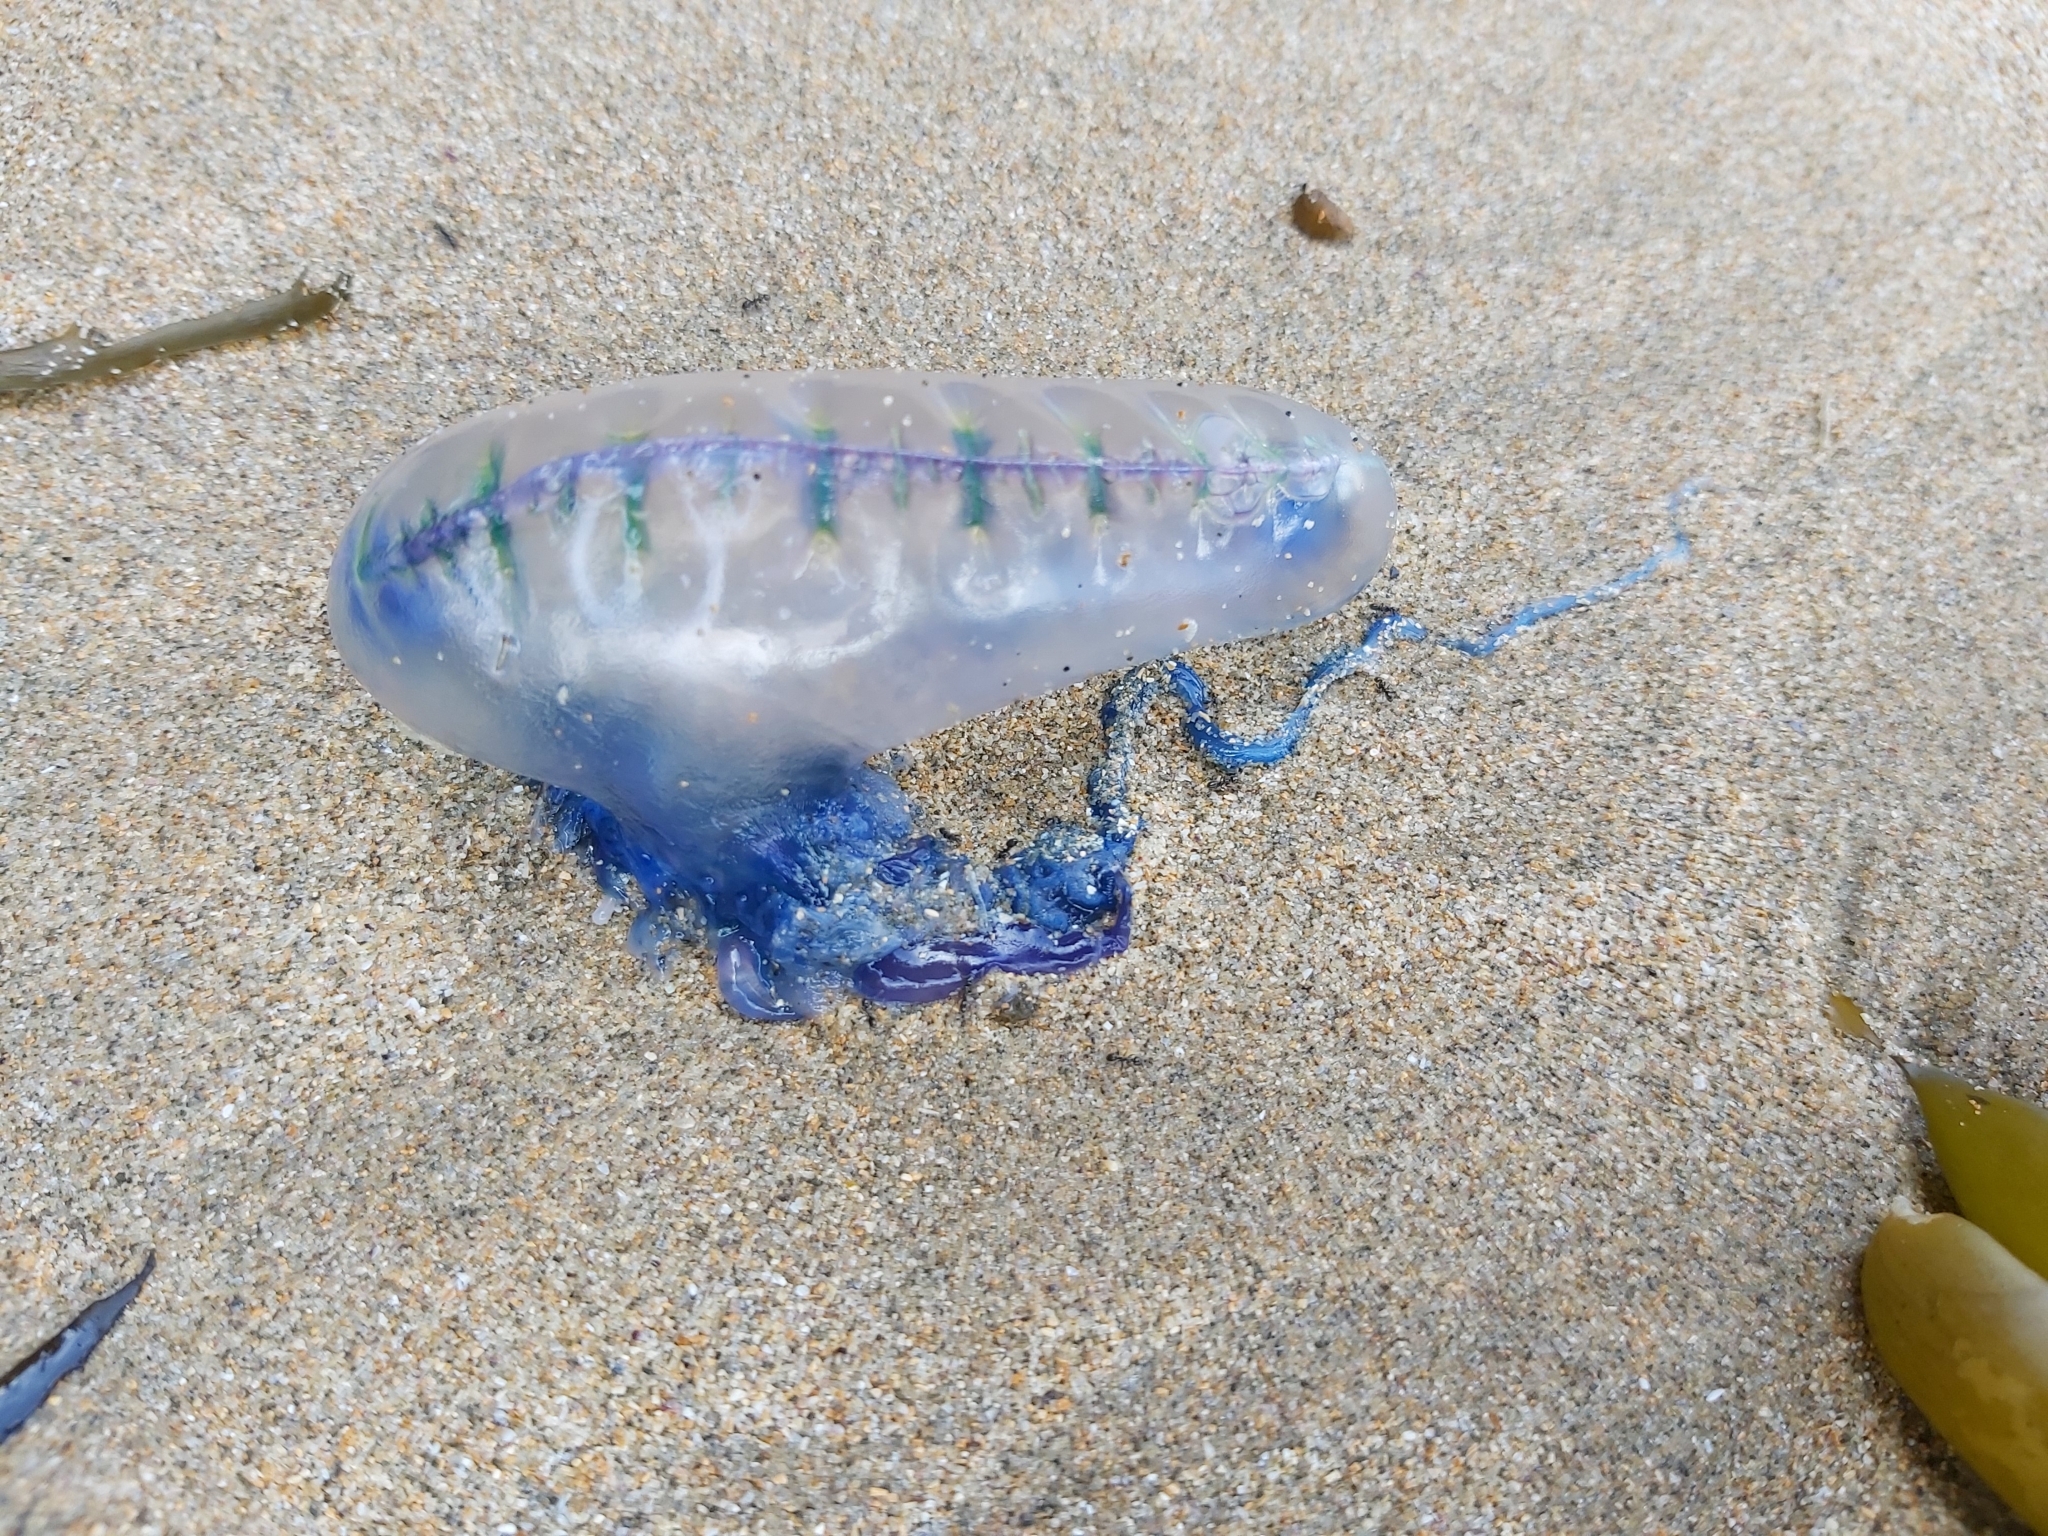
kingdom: Animalia
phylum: Cnidaria
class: Hydrozoa
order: Siphonophorae
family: Physaliidae
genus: Physalia
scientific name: Physalia physalis
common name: Portuguese man-of-war
